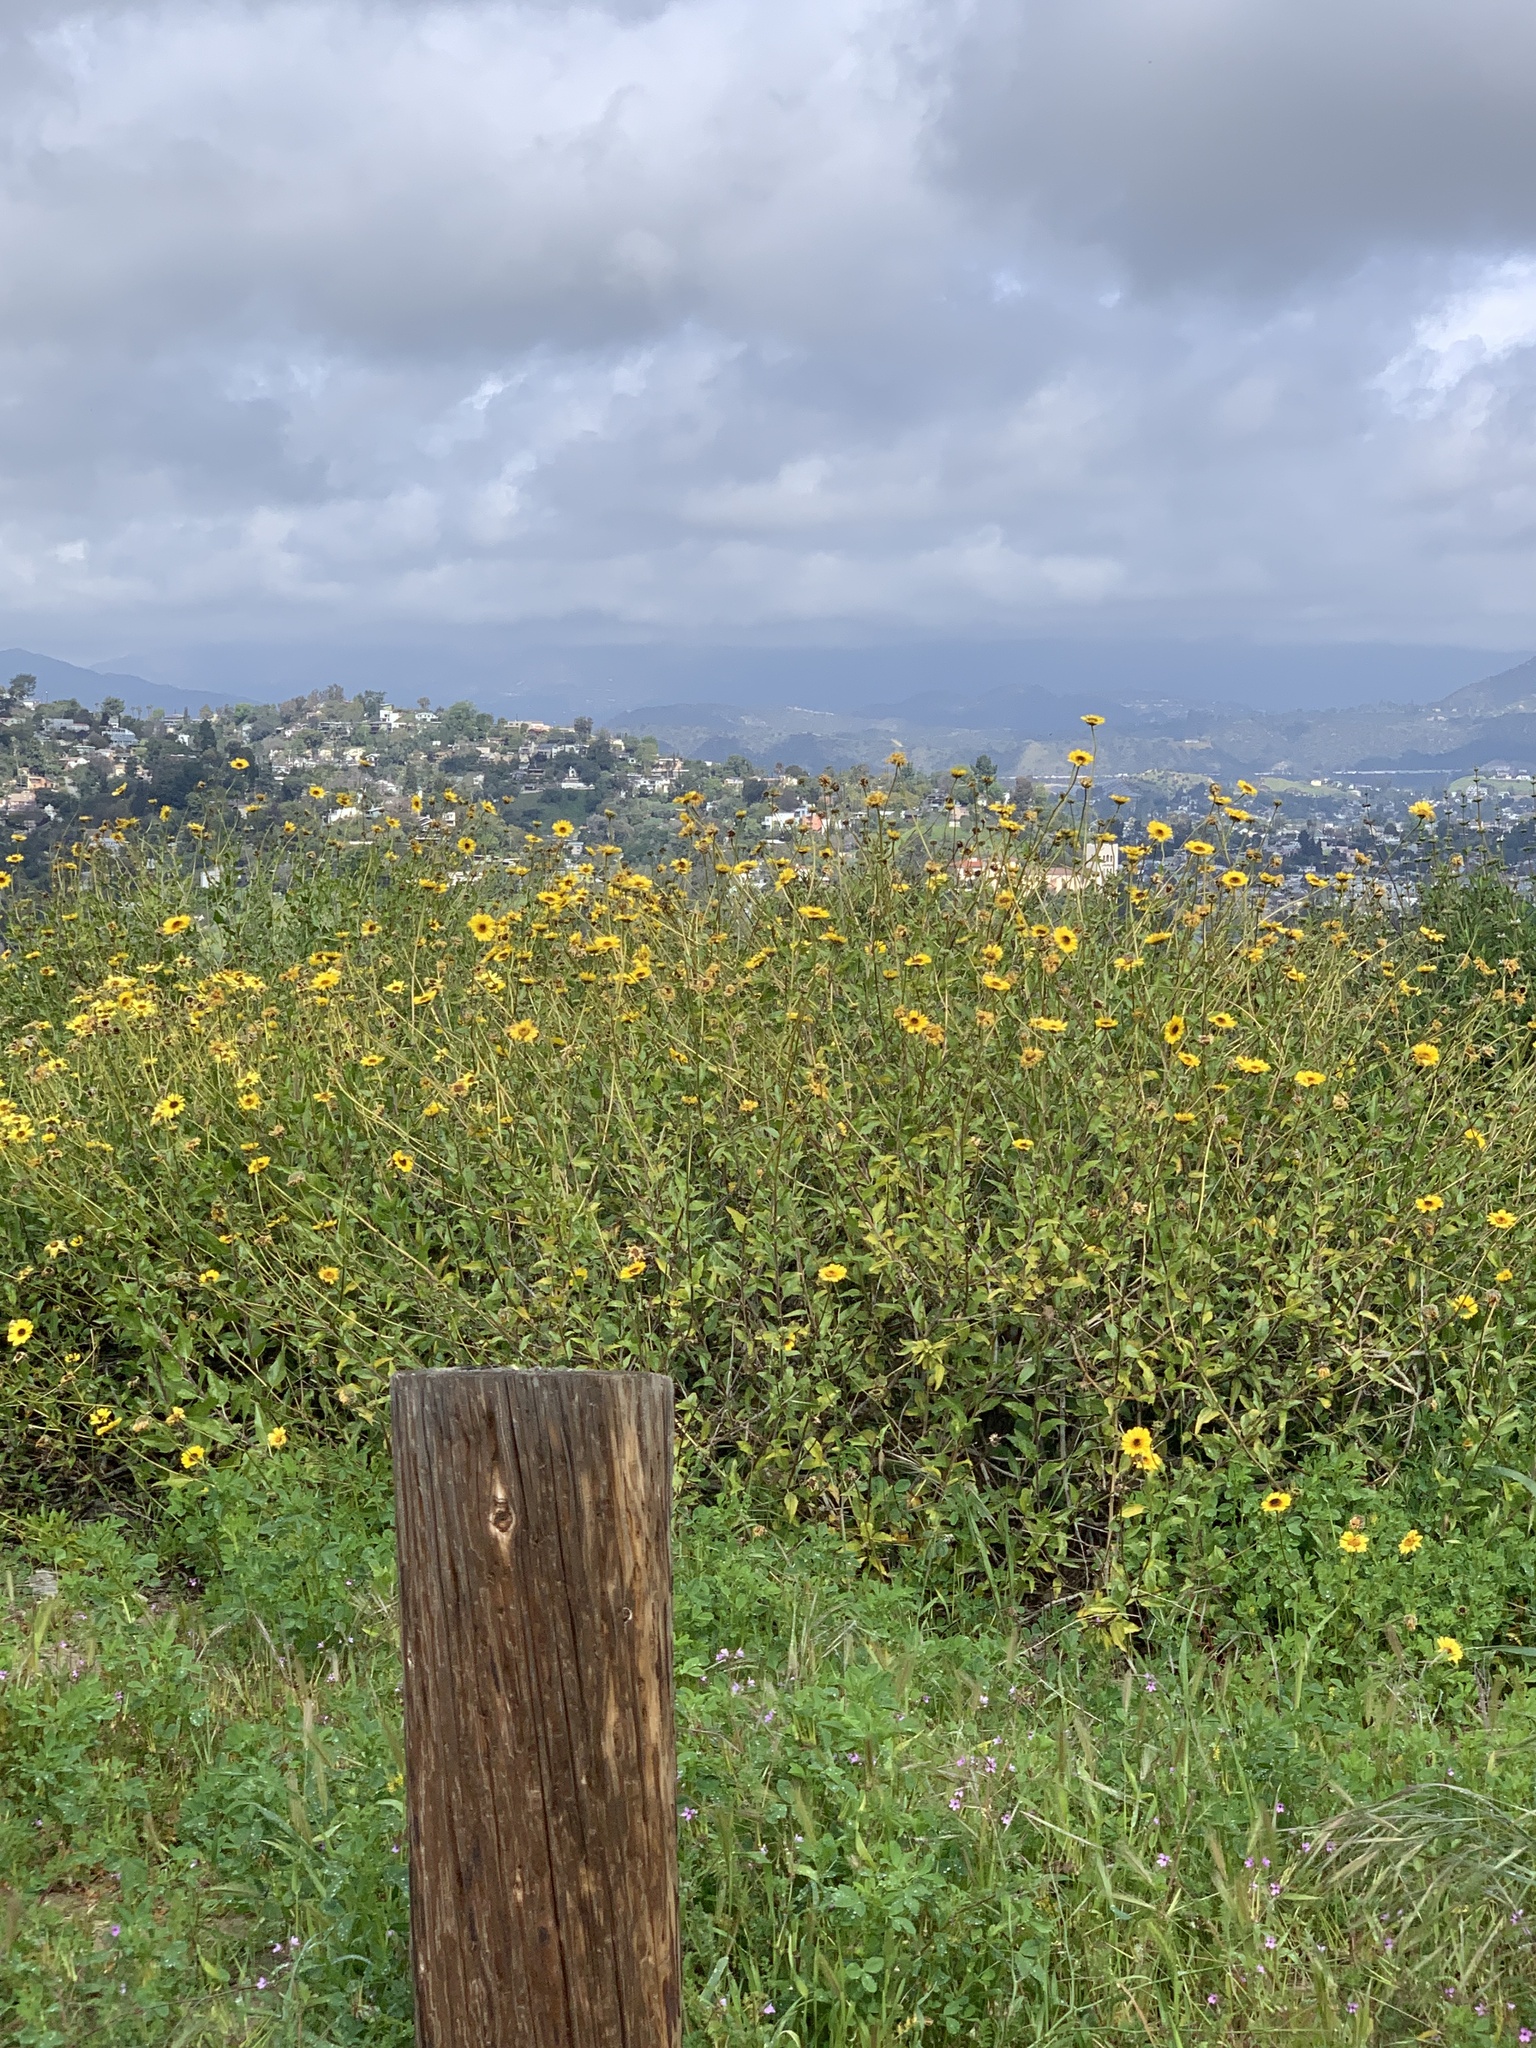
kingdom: Plantae
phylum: Tracheophyta
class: Magnoliopsida
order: Asterales
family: Asteraceae
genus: Encelia
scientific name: Encelia californica
